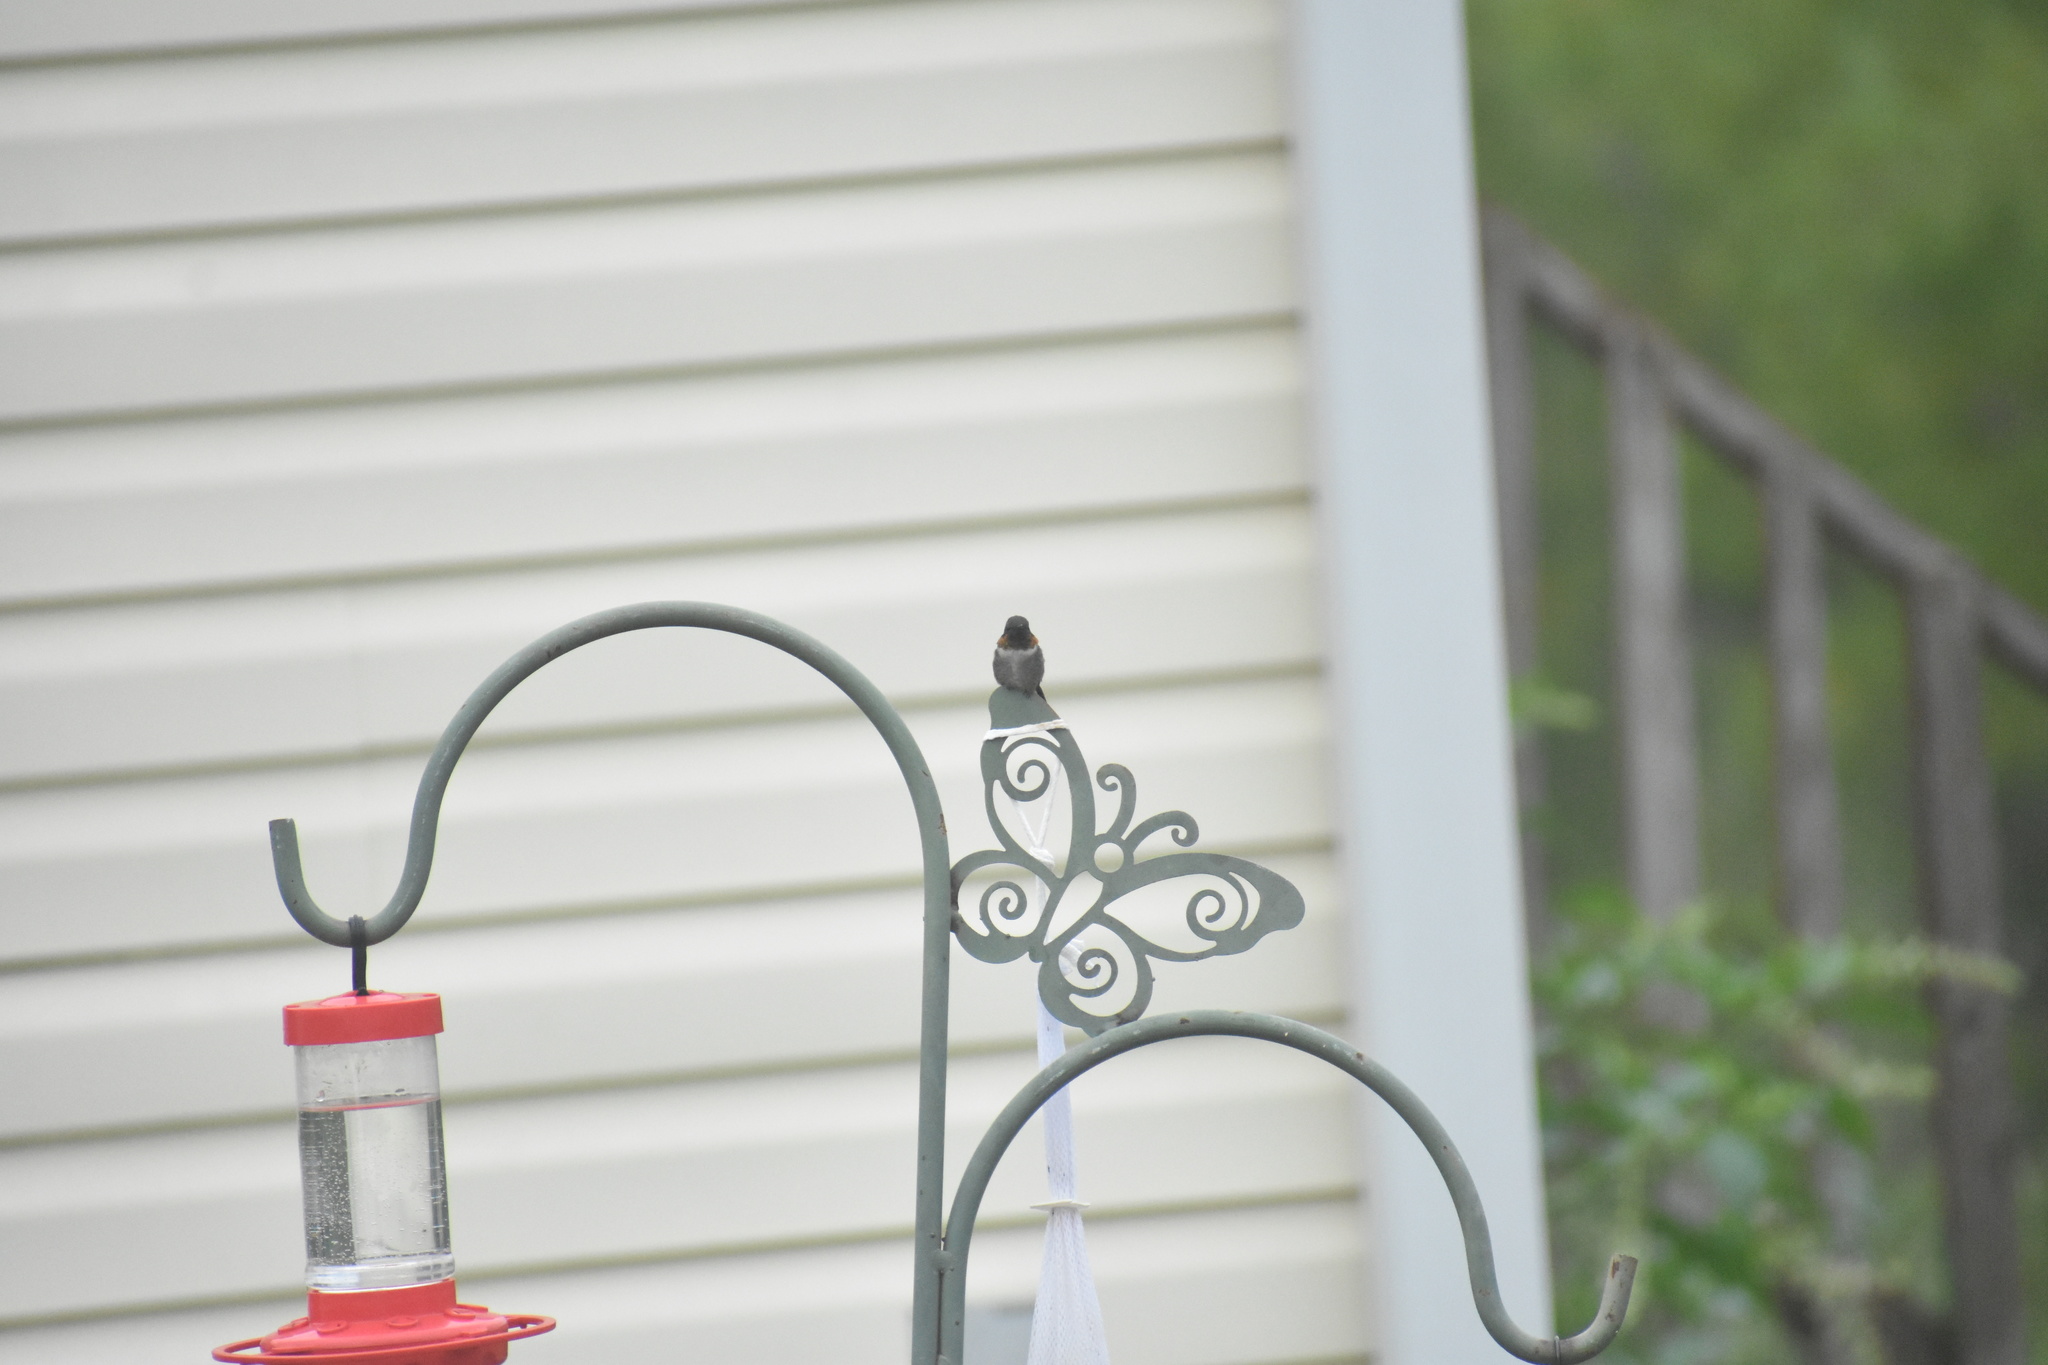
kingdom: Animalia
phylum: Chordata
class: Aves
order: Apodiformes
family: Trochilidae
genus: Archilochus
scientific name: Archilochus colubris
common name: Ruby-throated hummingbird
